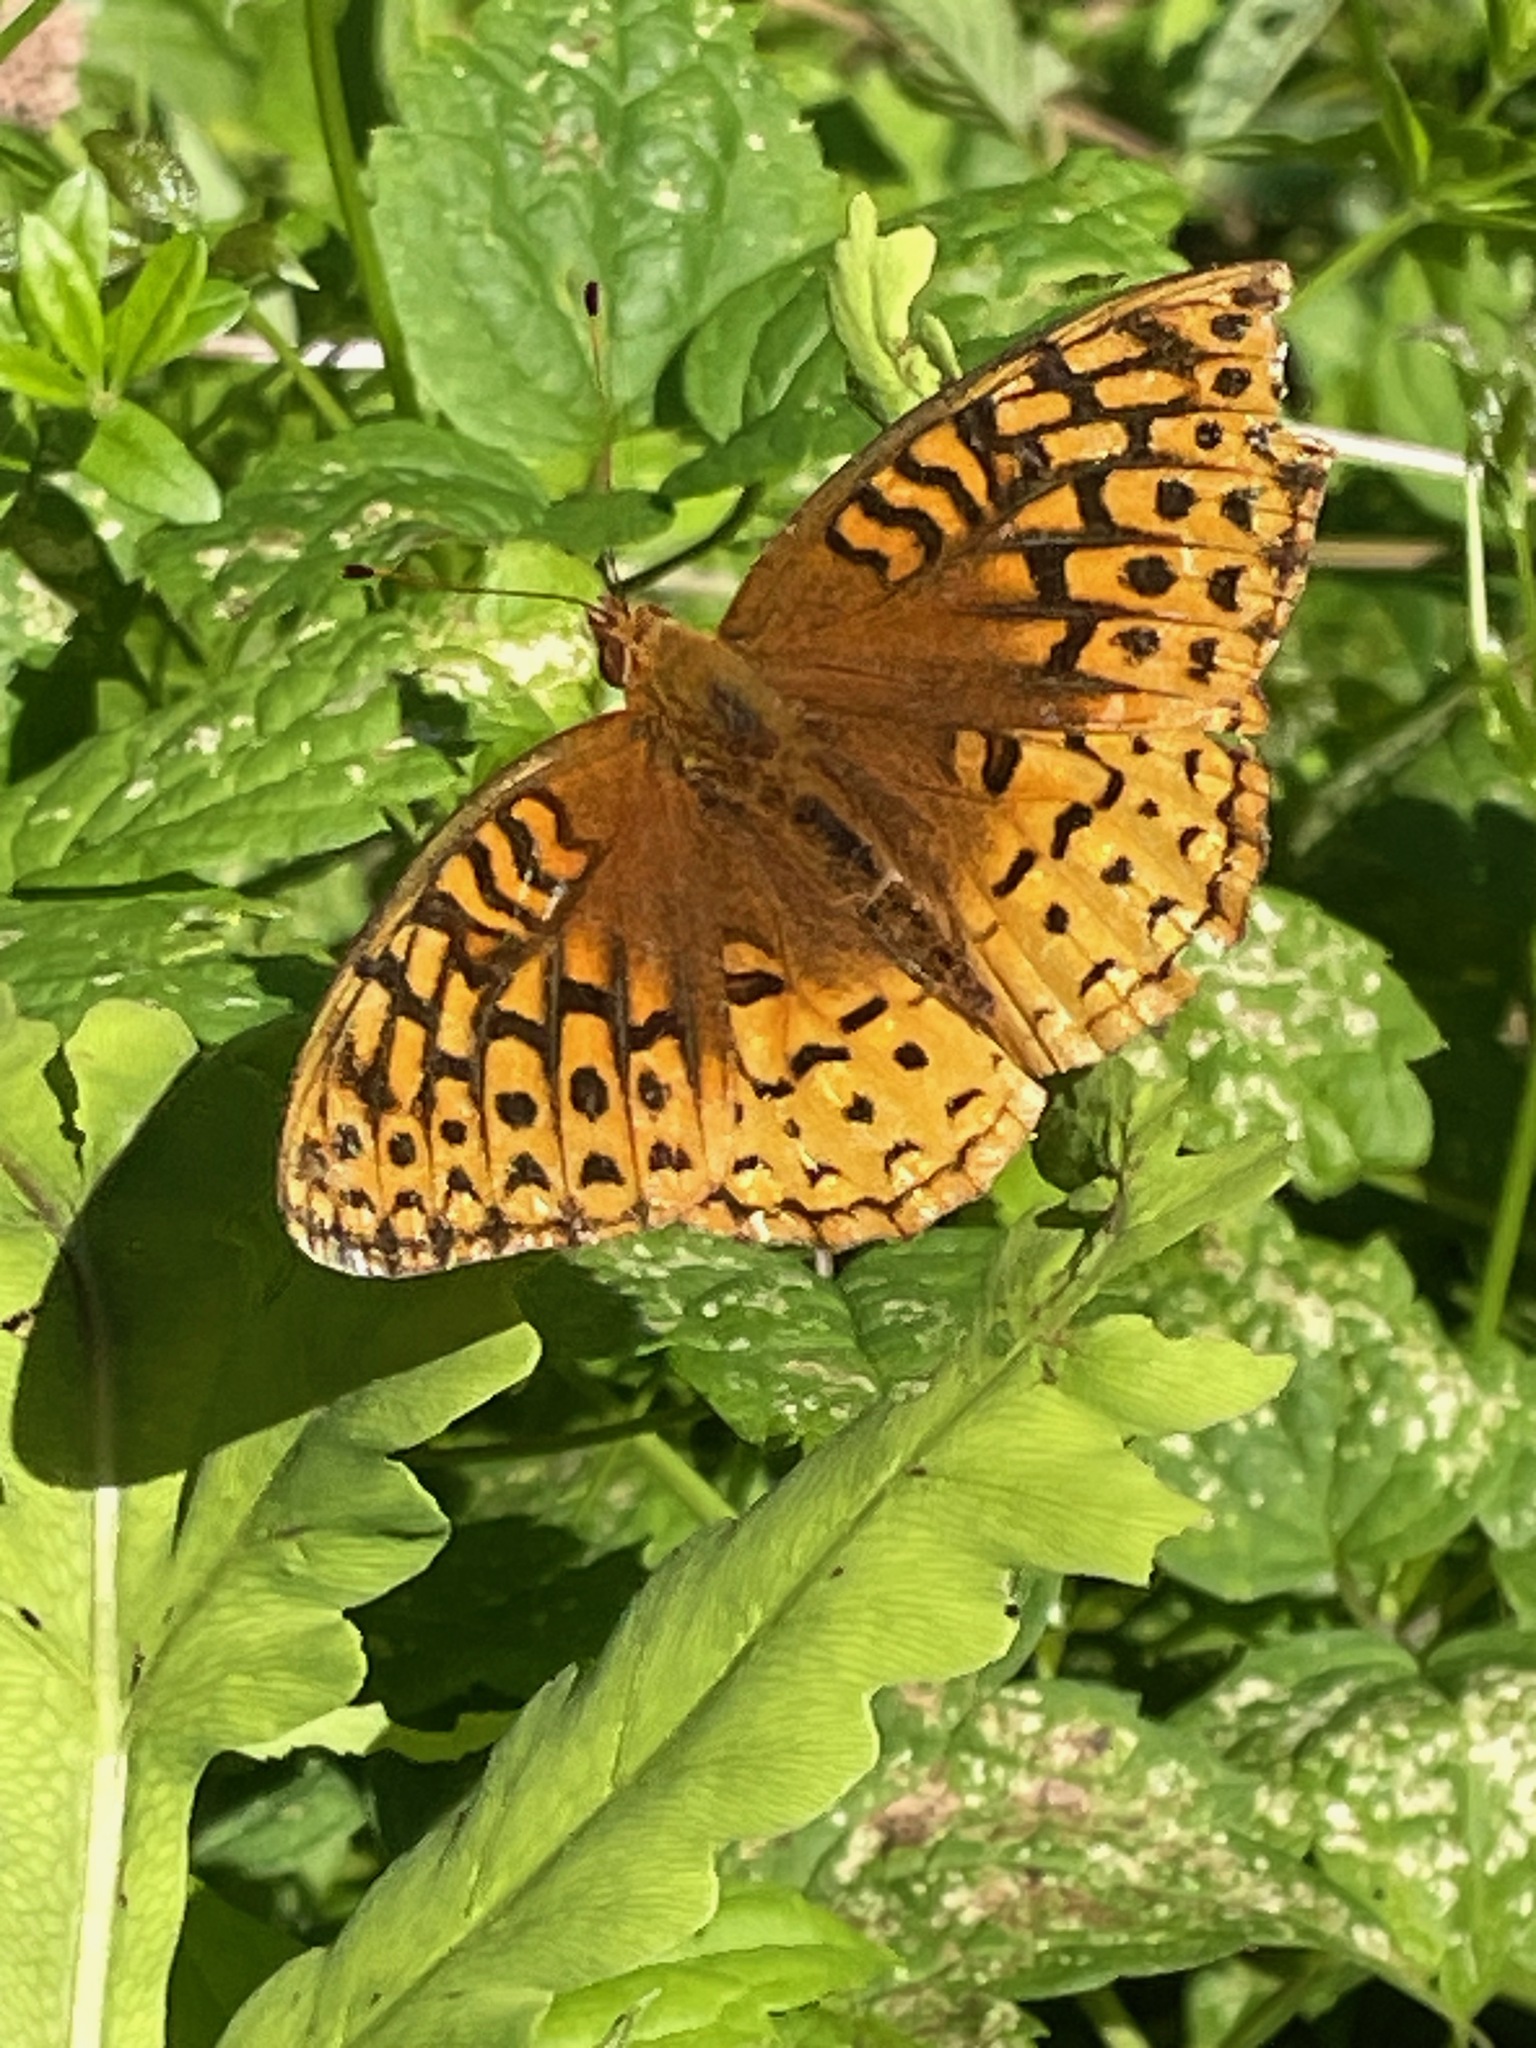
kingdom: Animalia
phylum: Arthropoda
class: Insecta
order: Lepidoptera
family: Nymphalidae
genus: Speyeria
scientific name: Speyeria cybele
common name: Great spangled fritillary
